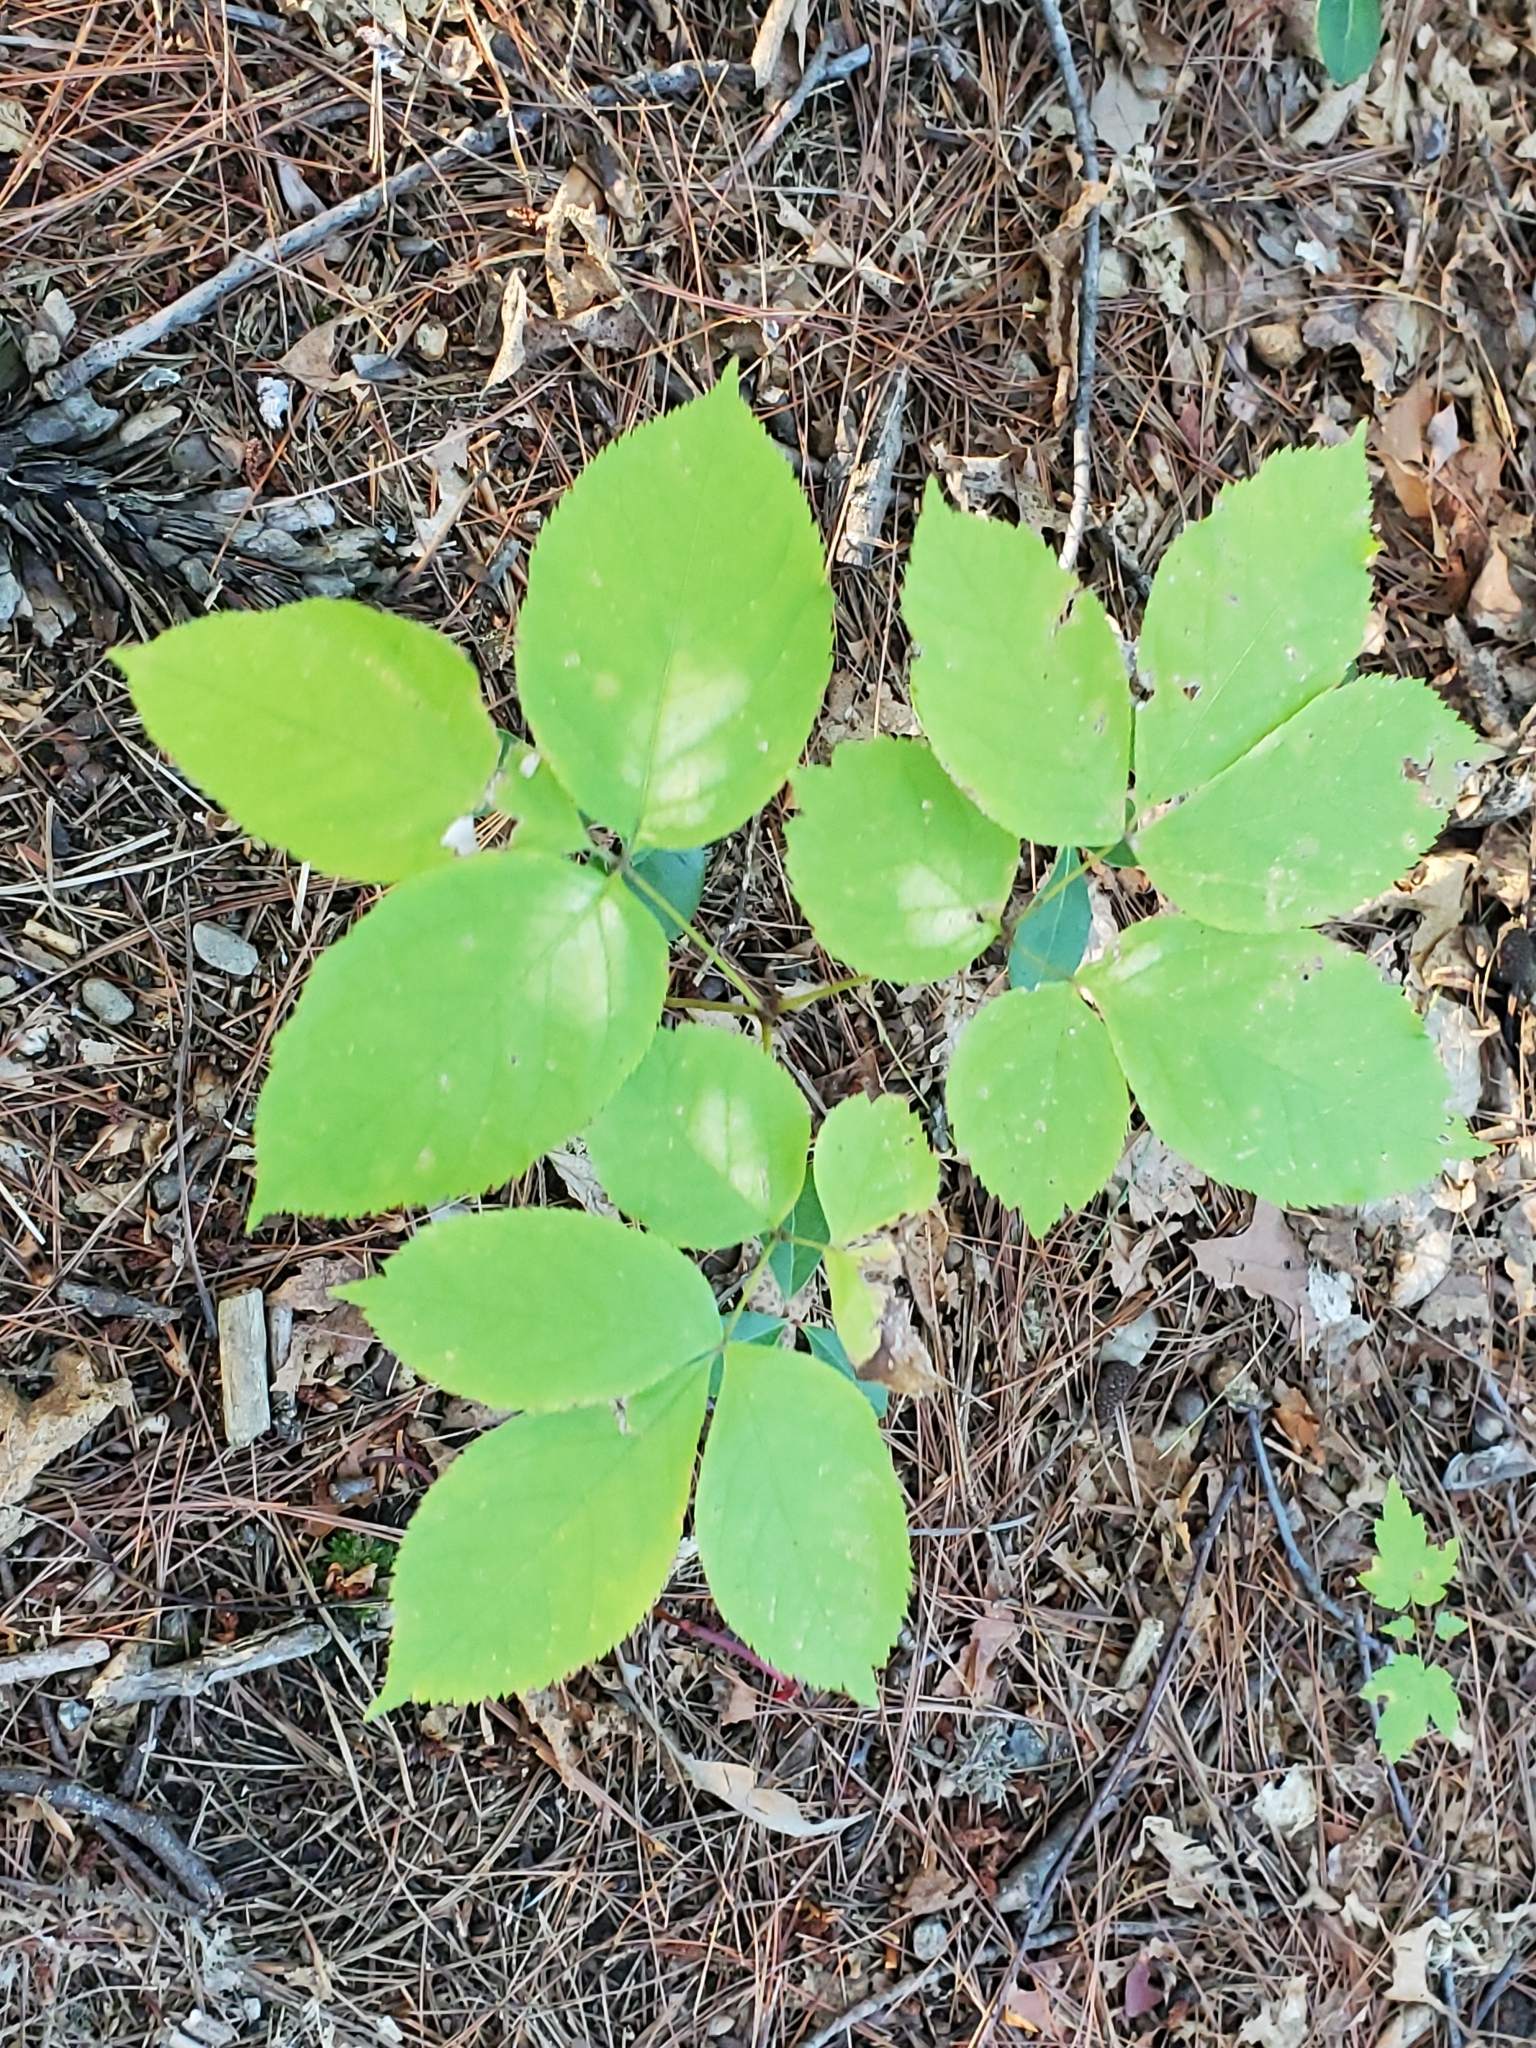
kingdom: Plantae
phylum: Tracheophyta
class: Magnoliopsida
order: Apiales
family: Araliaceae
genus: Aralia
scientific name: Aralia nudicaulis
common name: Wild sarsaparilla
